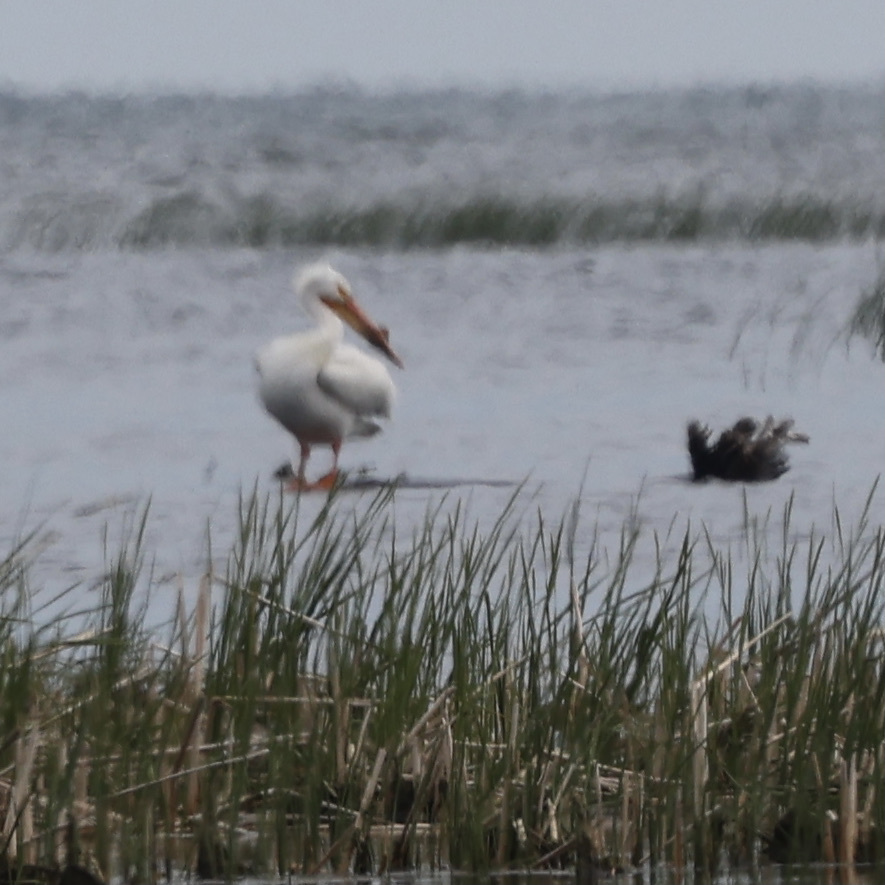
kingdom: Animalia
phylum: Chordata
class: Aves
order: Pelecaniformes
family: Pelecanidae
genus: Pelecanus
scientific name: Pelecanus erythrorhynchos
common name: American white pelican
